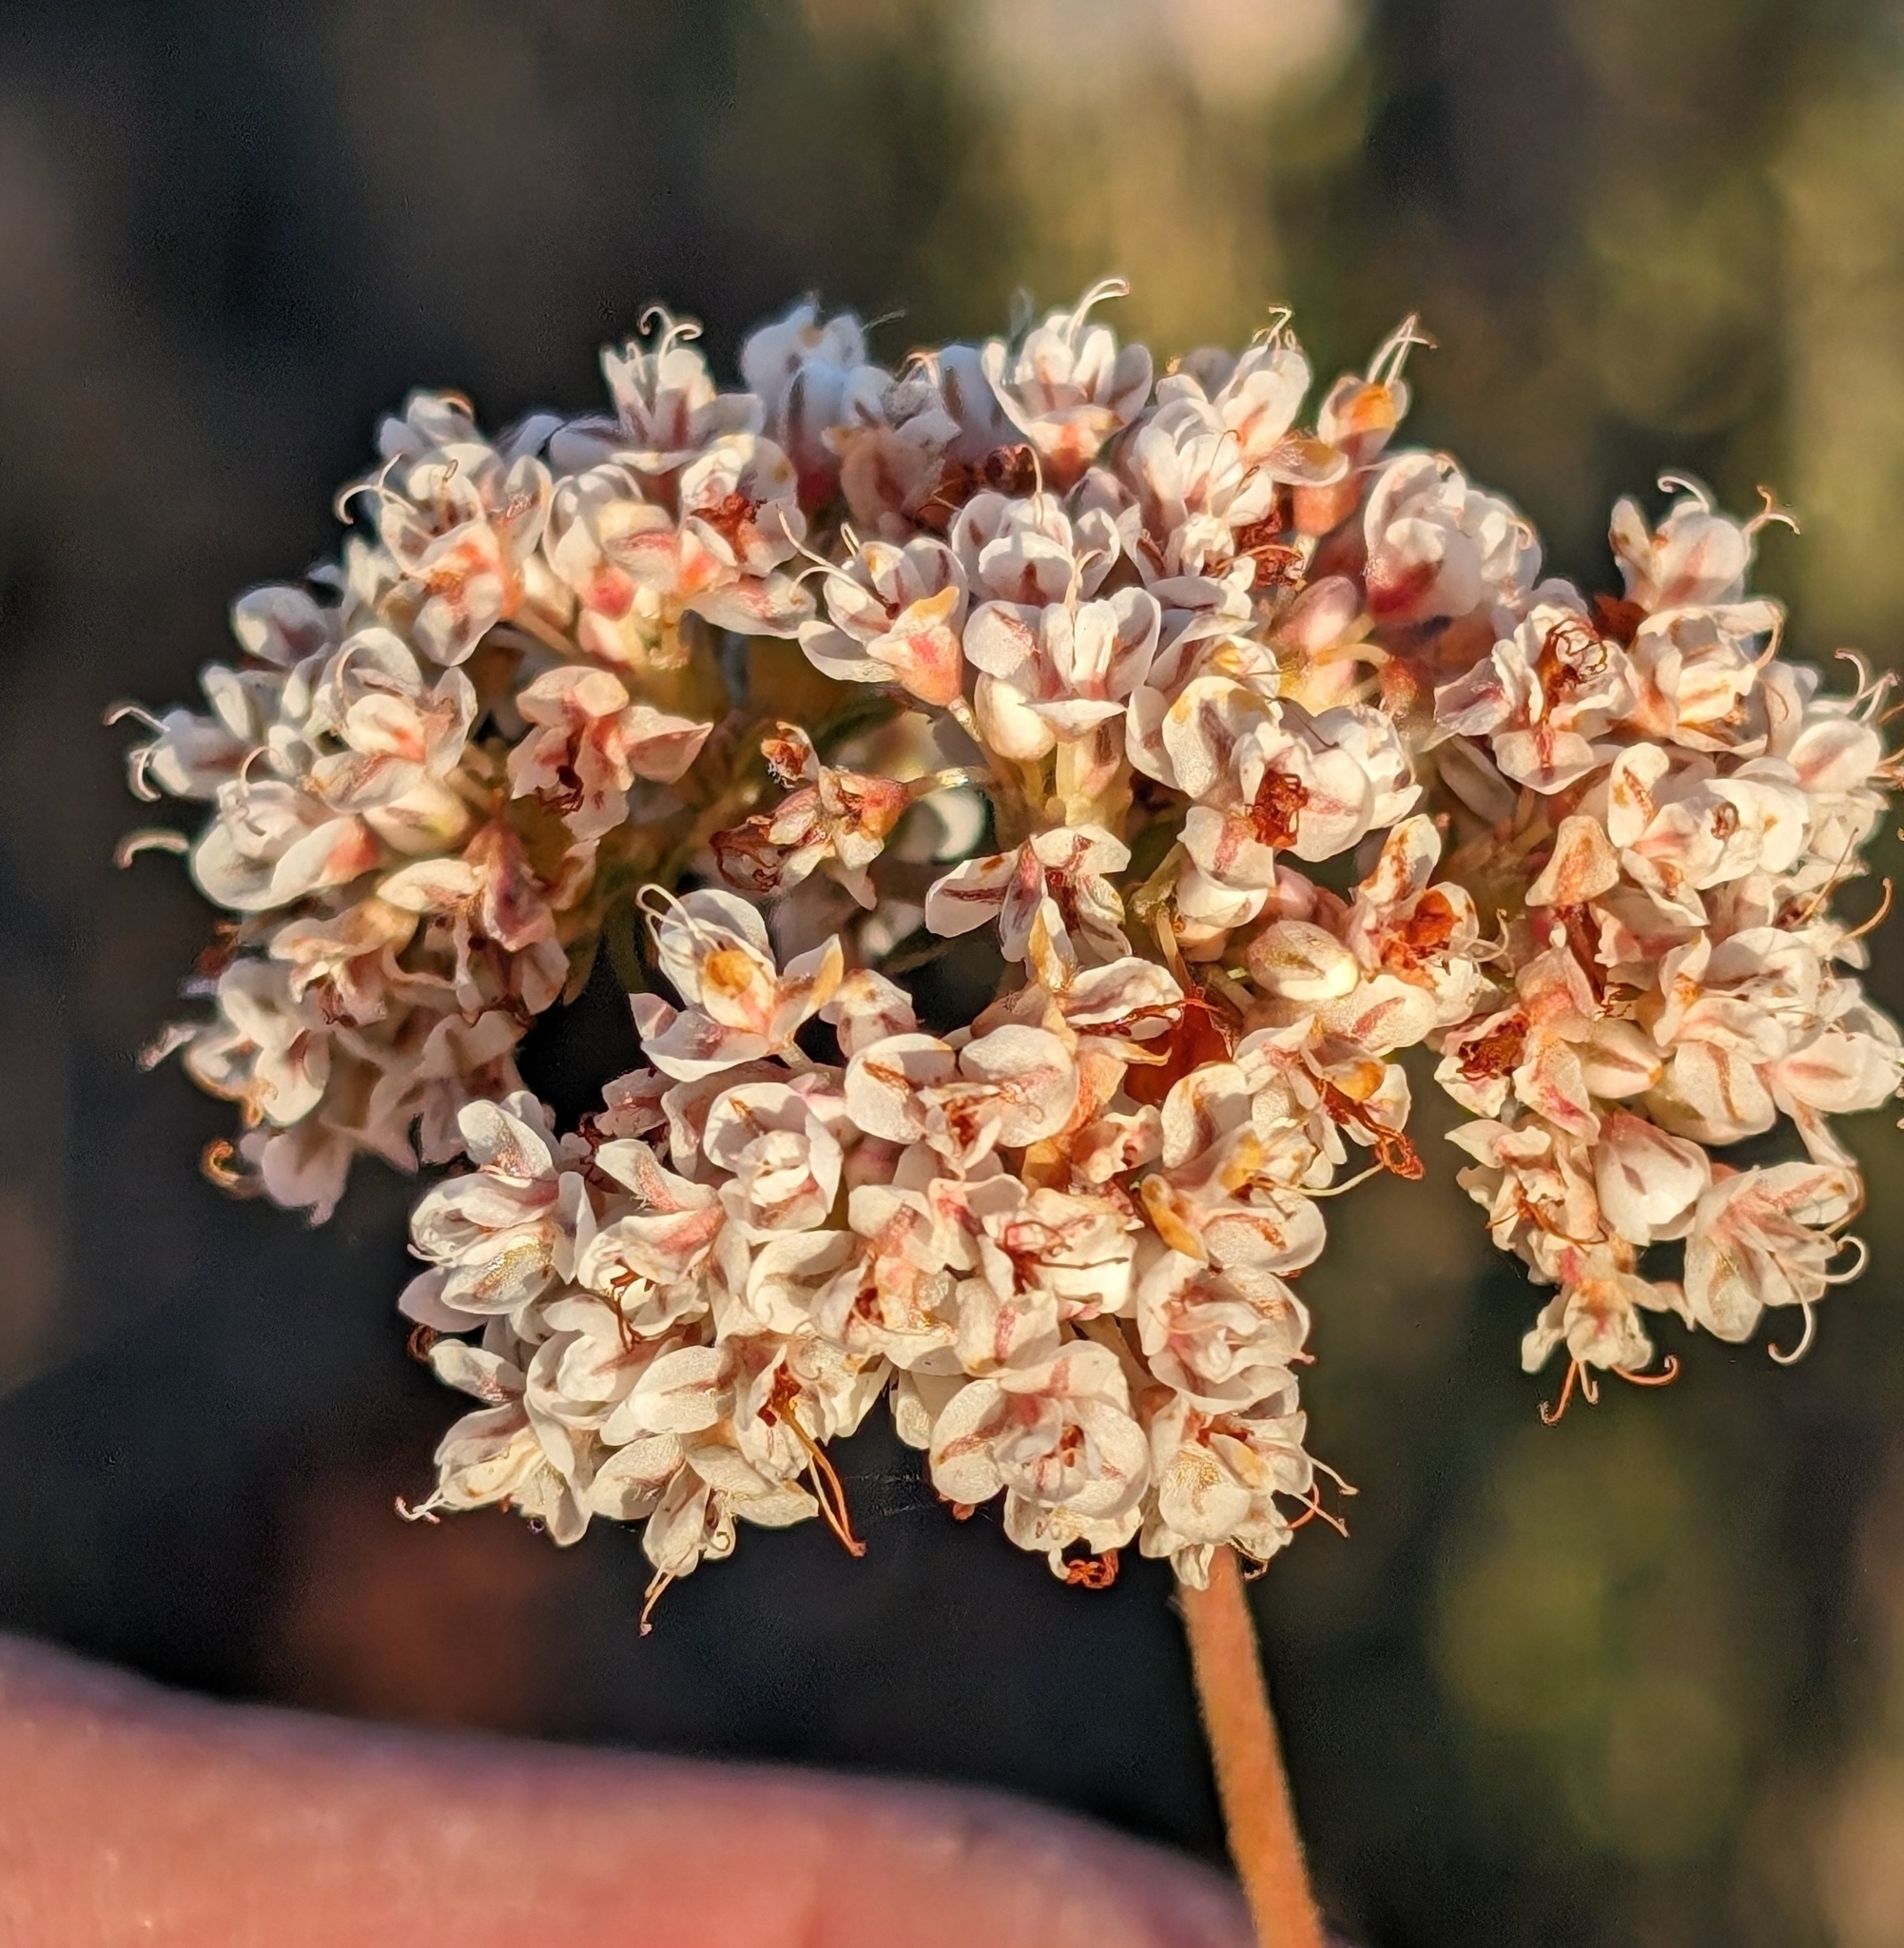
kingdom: Plantae
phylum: Tracheophyta
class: Magnoliopsida
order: Caryophyllales
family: Polygonaceae
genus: Eriogonum
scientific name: Eriogonum fasciculatum
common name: California wild buckwheat
